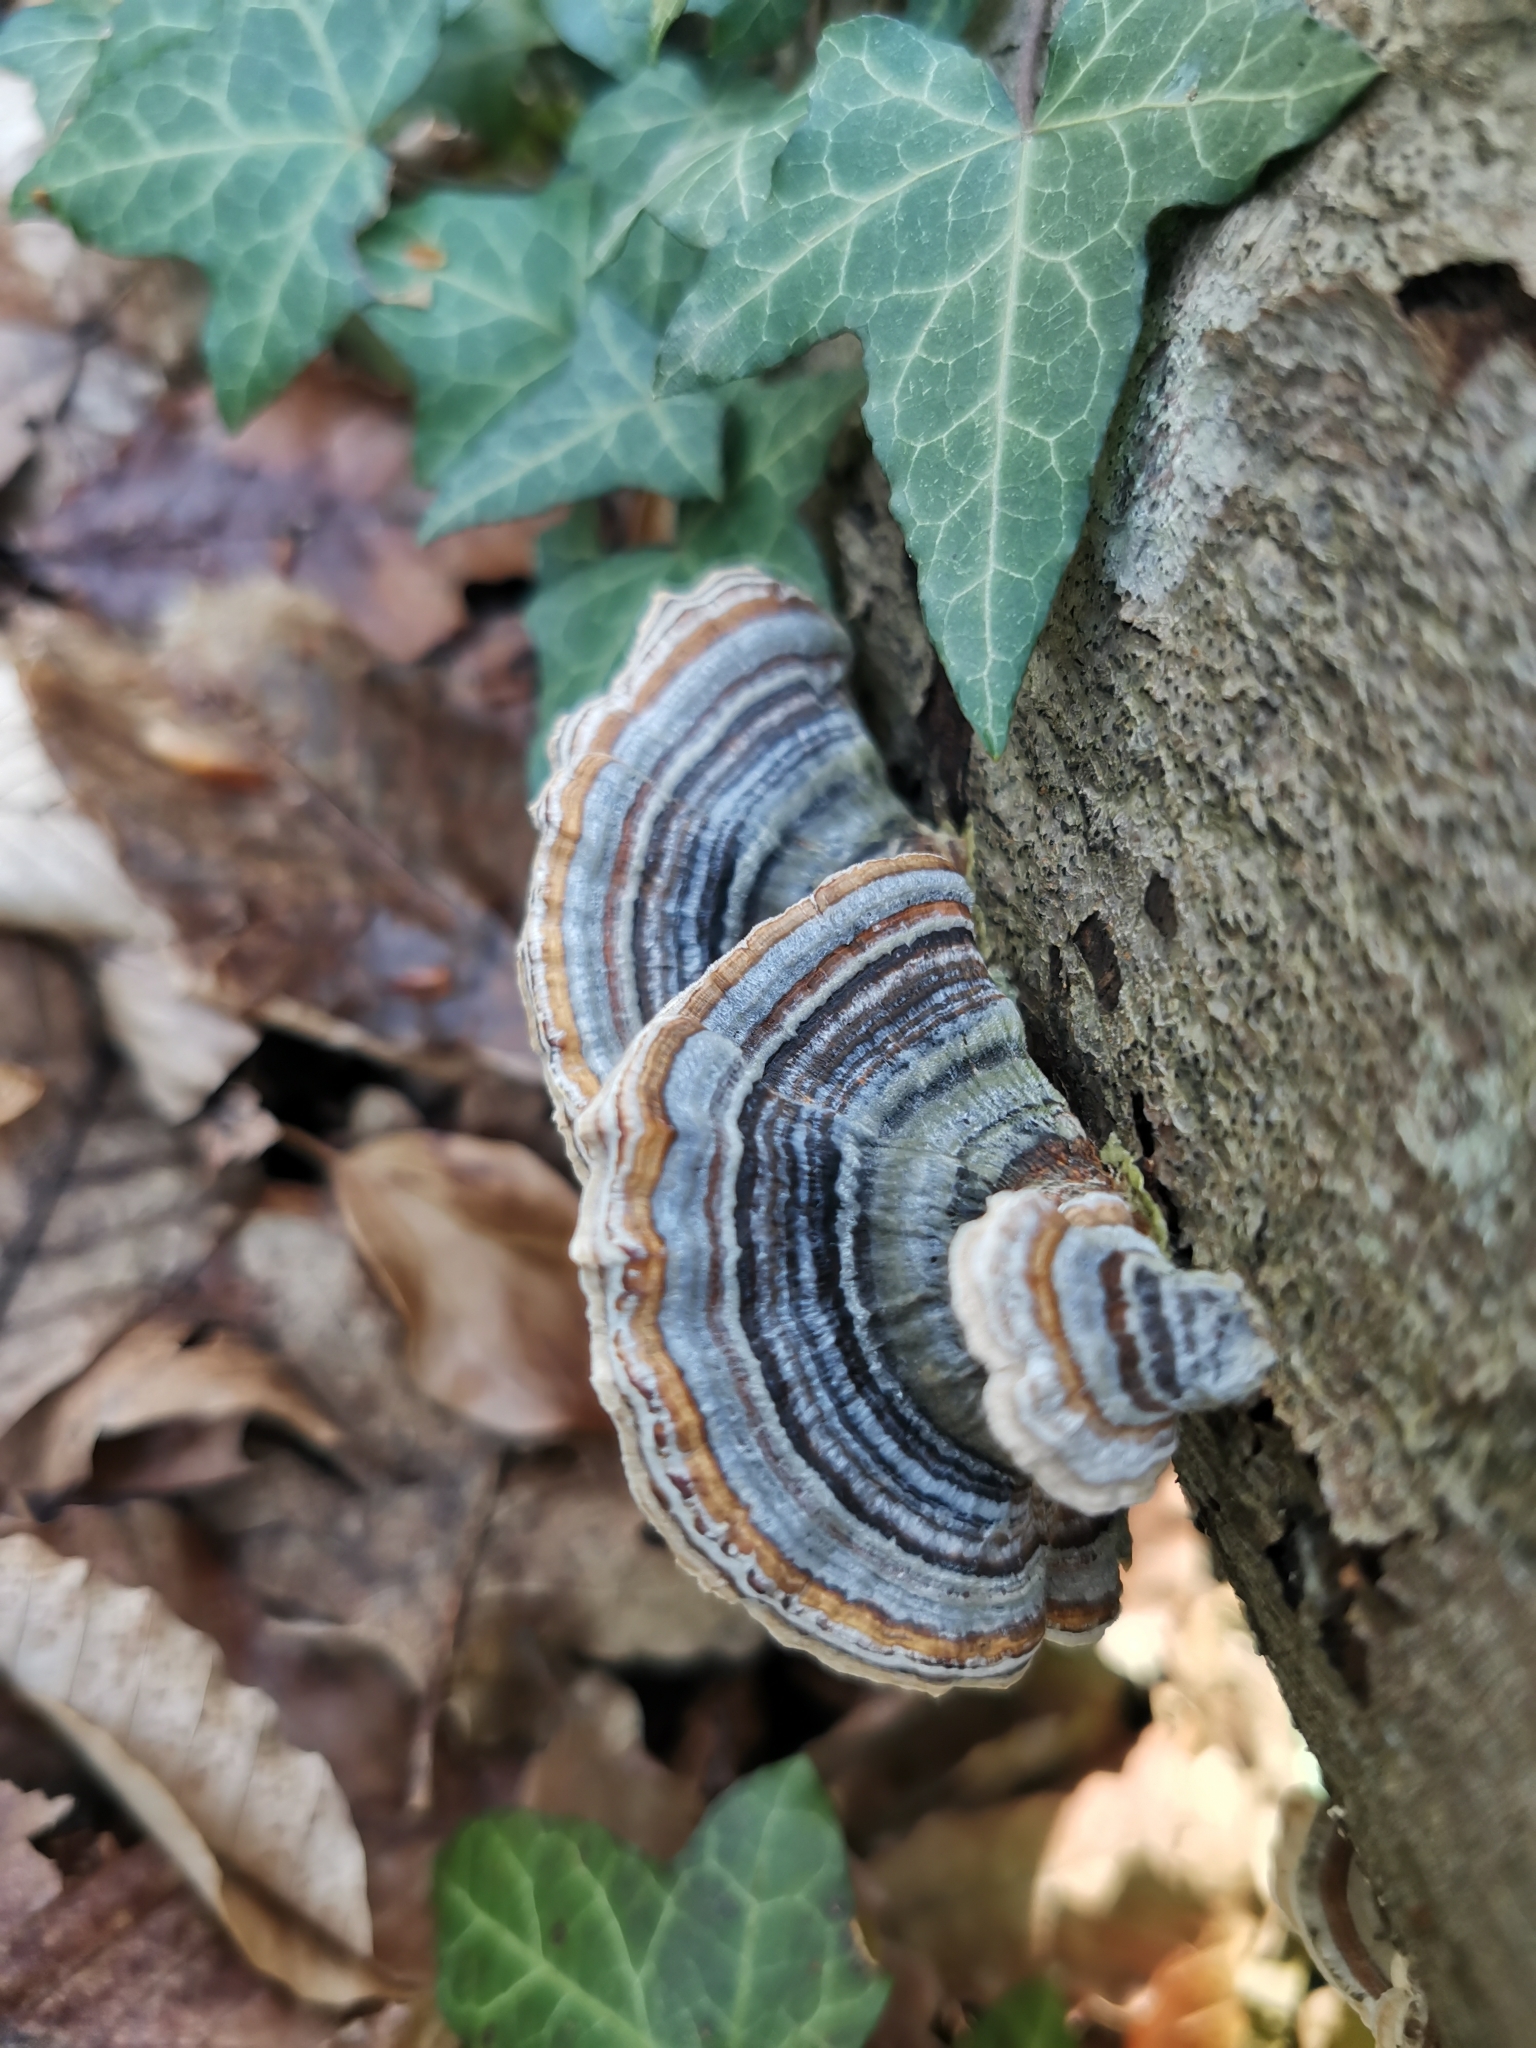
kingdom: Fungi
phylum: Basidiomycota
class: Agaricomycetes
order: Polyporales
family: Polyporaceae
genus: Trametes
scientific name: Trametes versicolor
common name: Turkeytail
